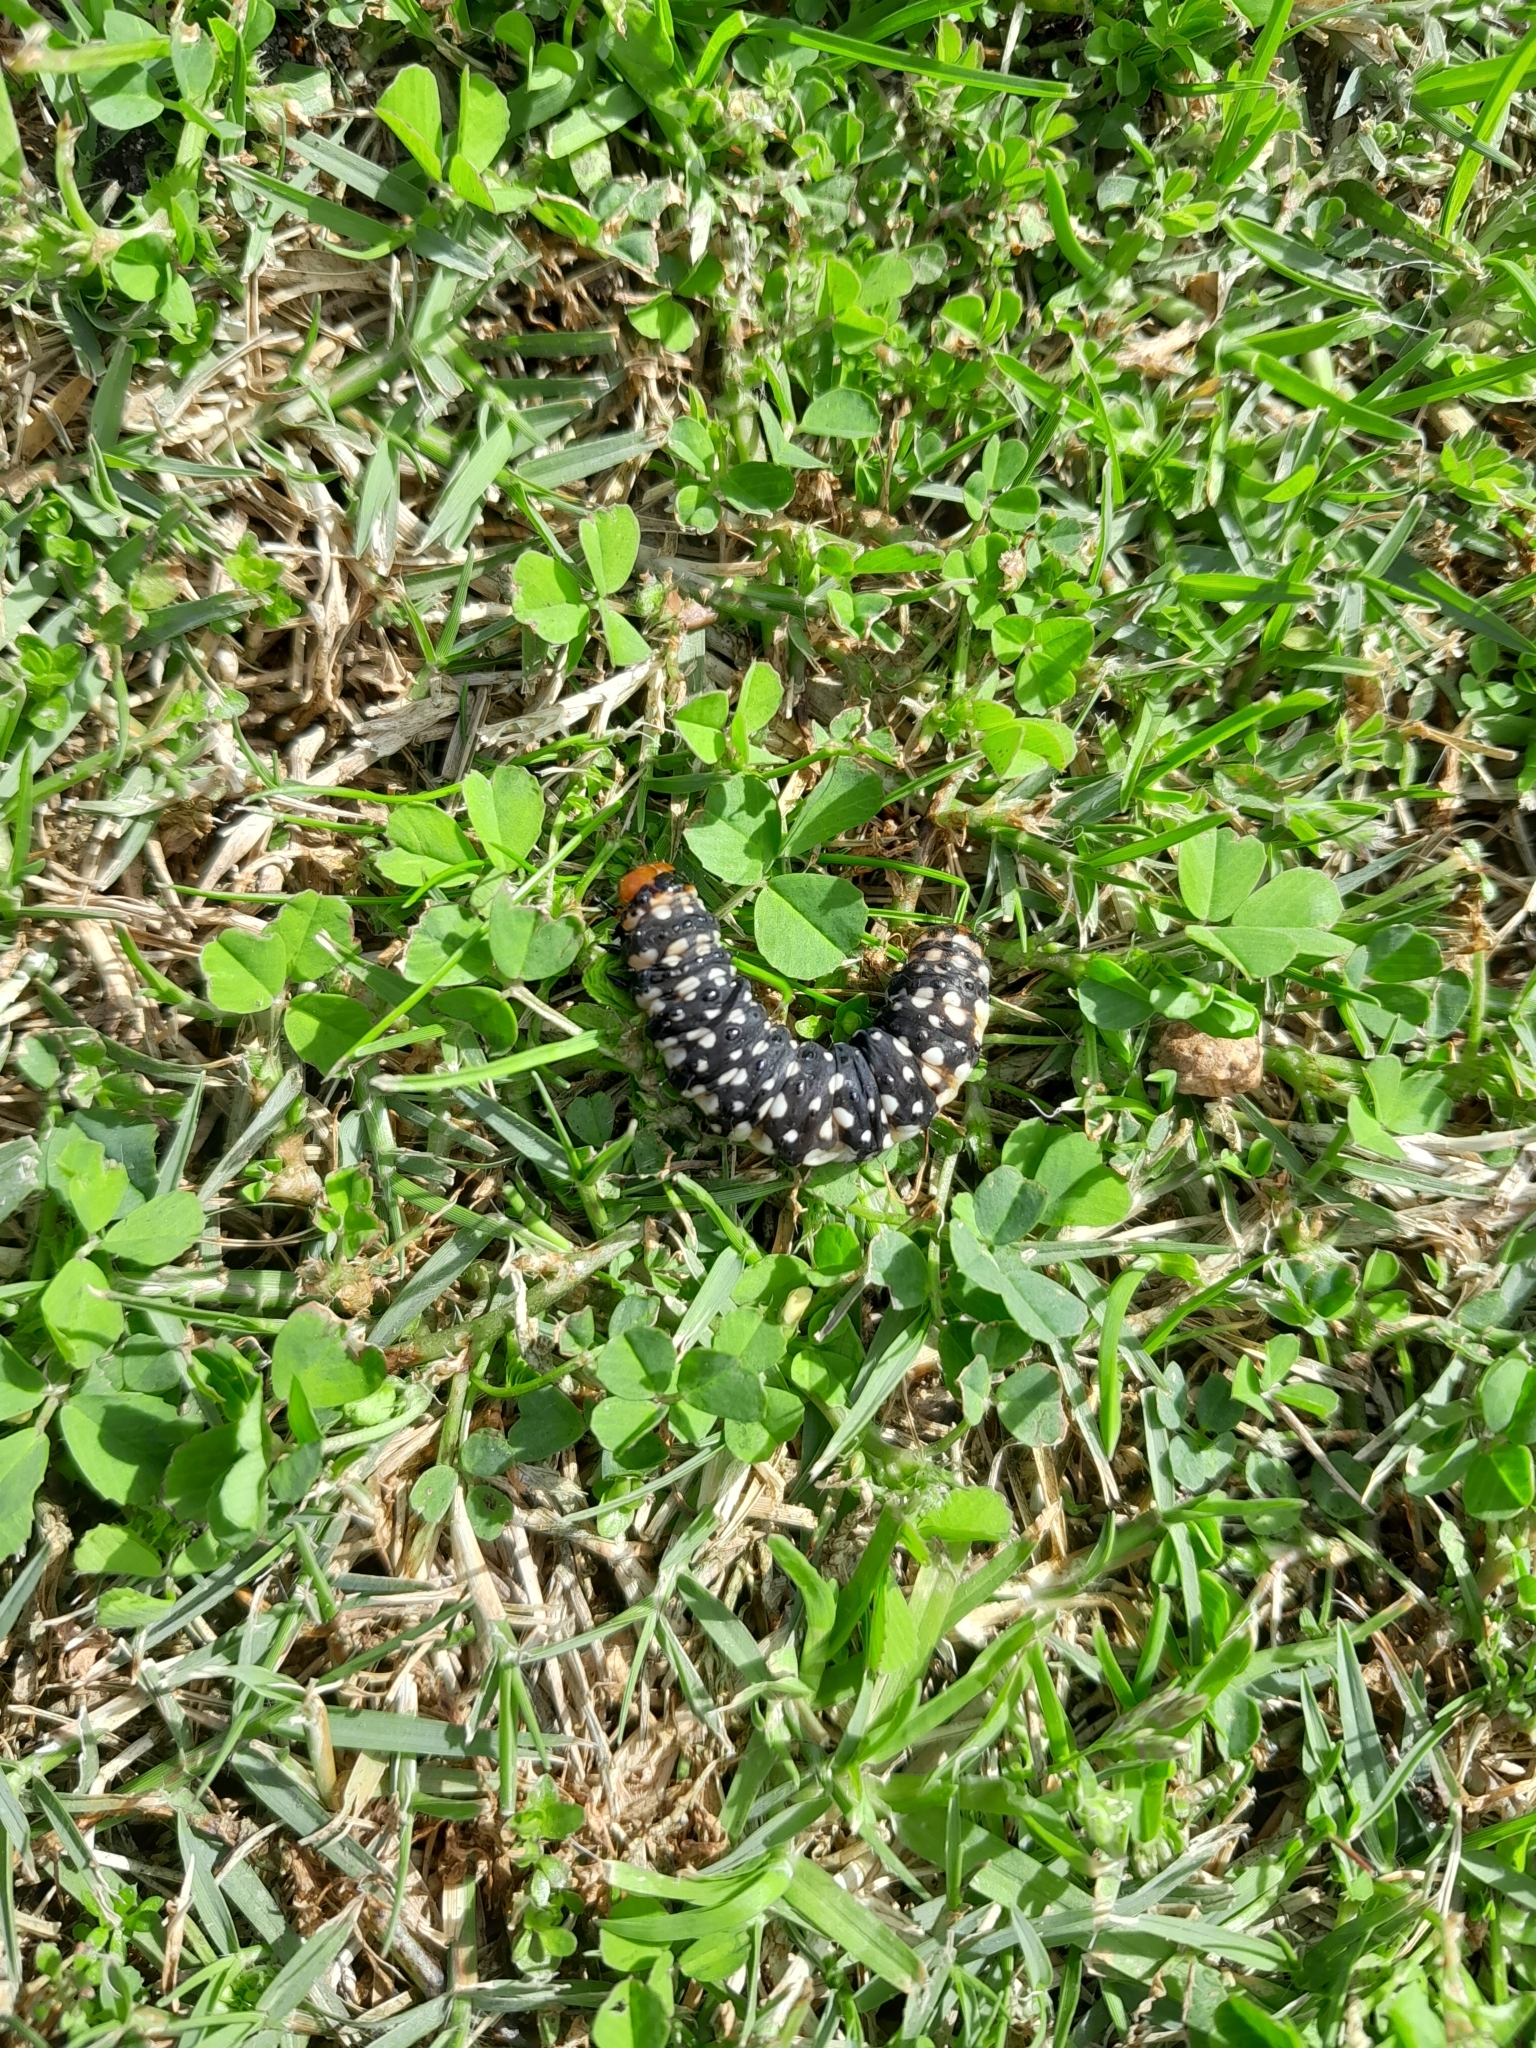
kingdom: Animalia
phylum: Arthropoda
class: Insecta
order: Lepidoptera
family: Noctuidae
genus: Brithys
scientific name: Brithys crini
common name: Kew arches
